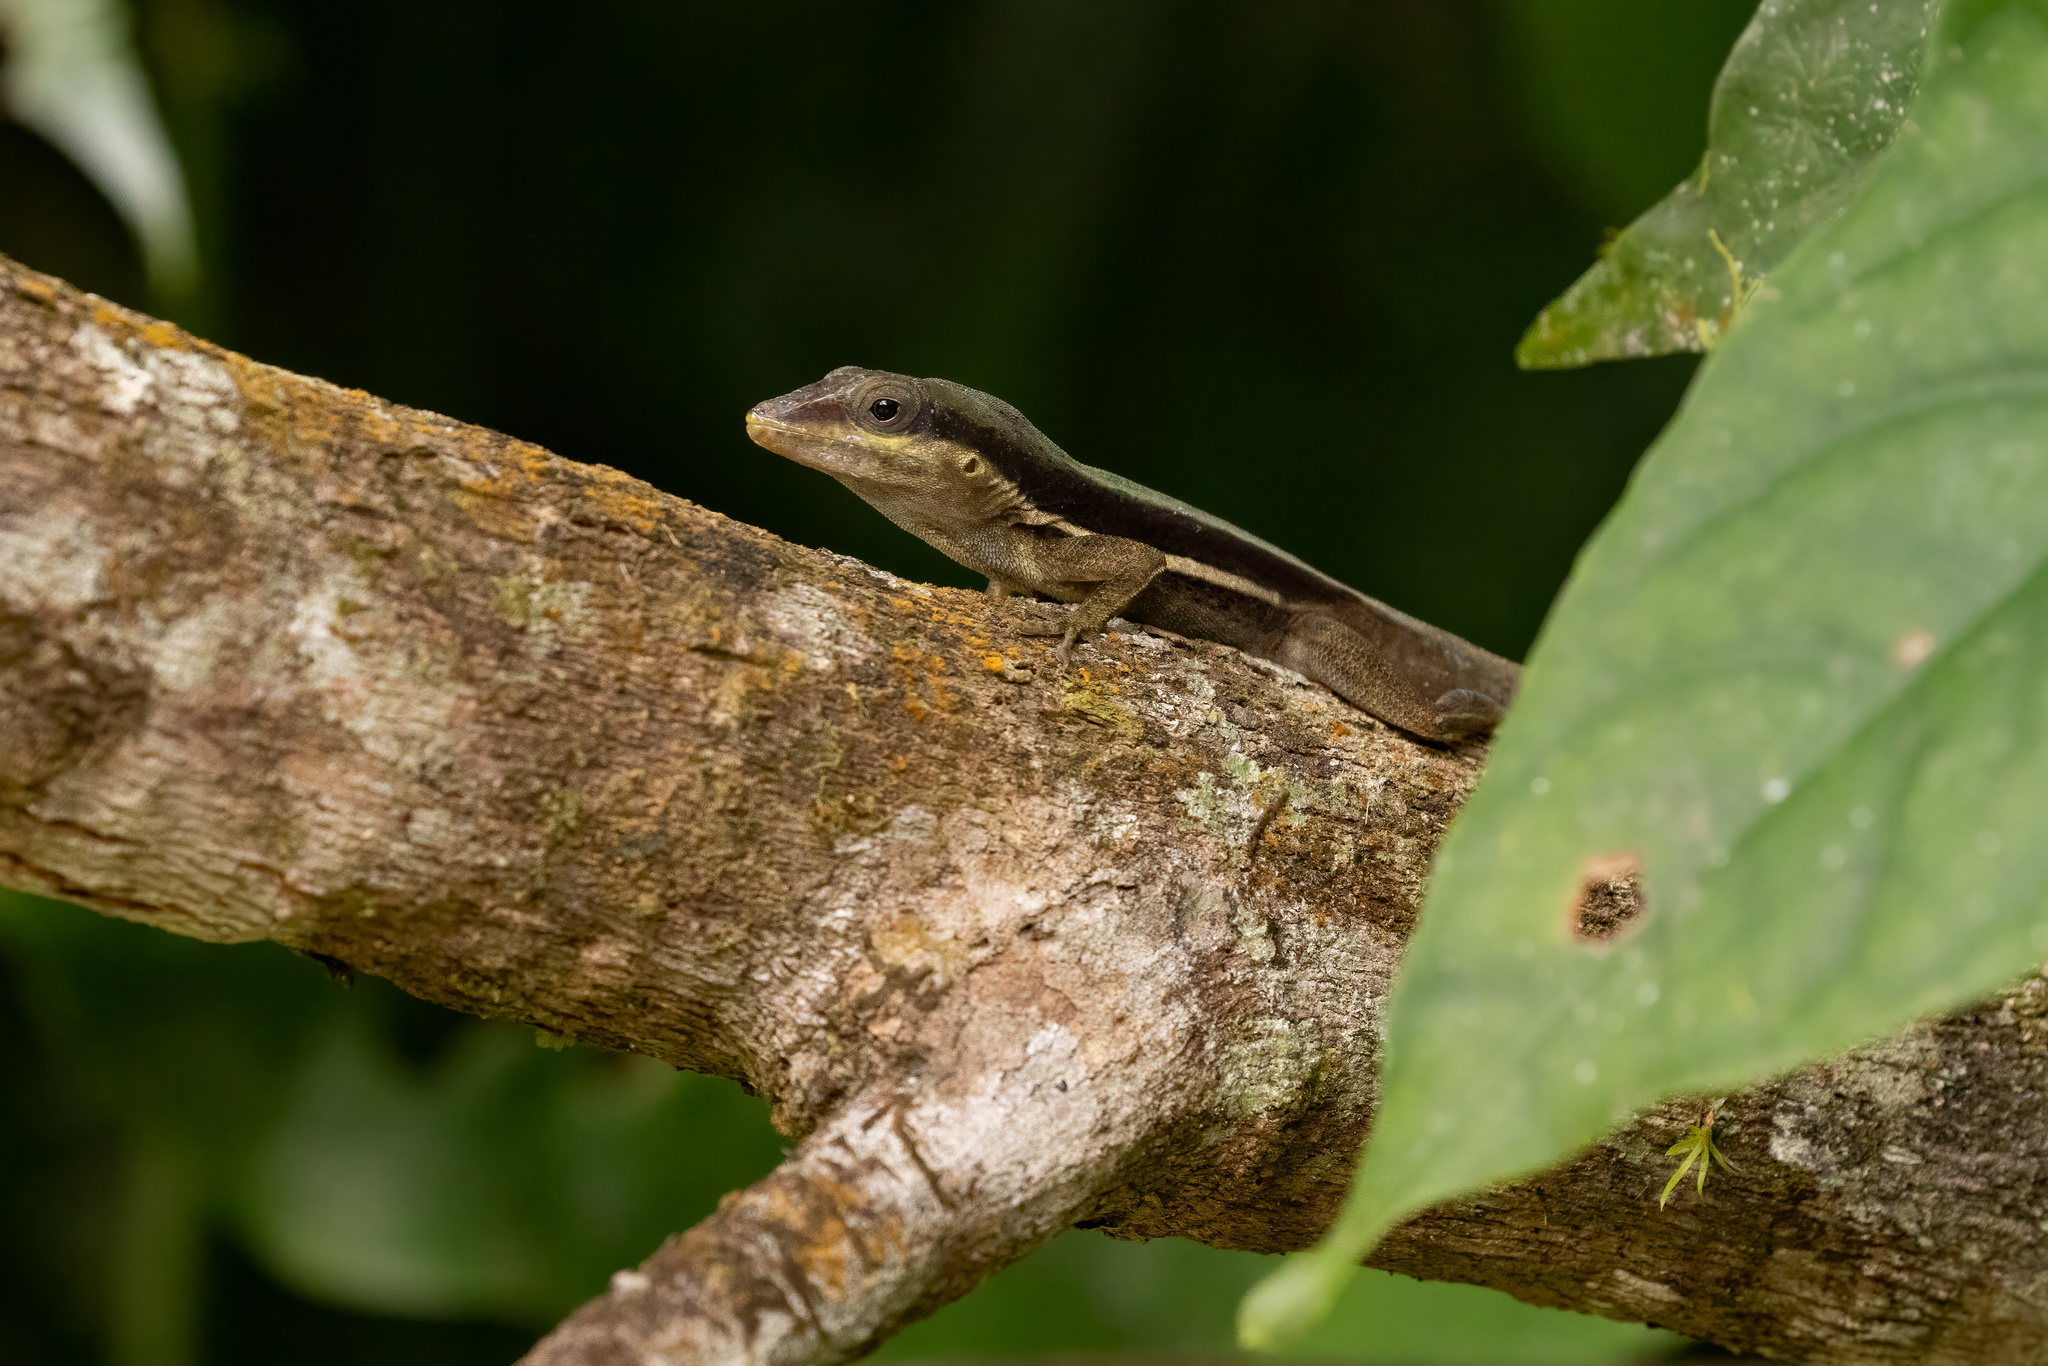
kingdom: Animalia
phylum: Chordata
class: Squamata
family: Dactyloidae
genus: Anolis
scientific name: Anolis pulchellus
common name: Puerto rican anole
